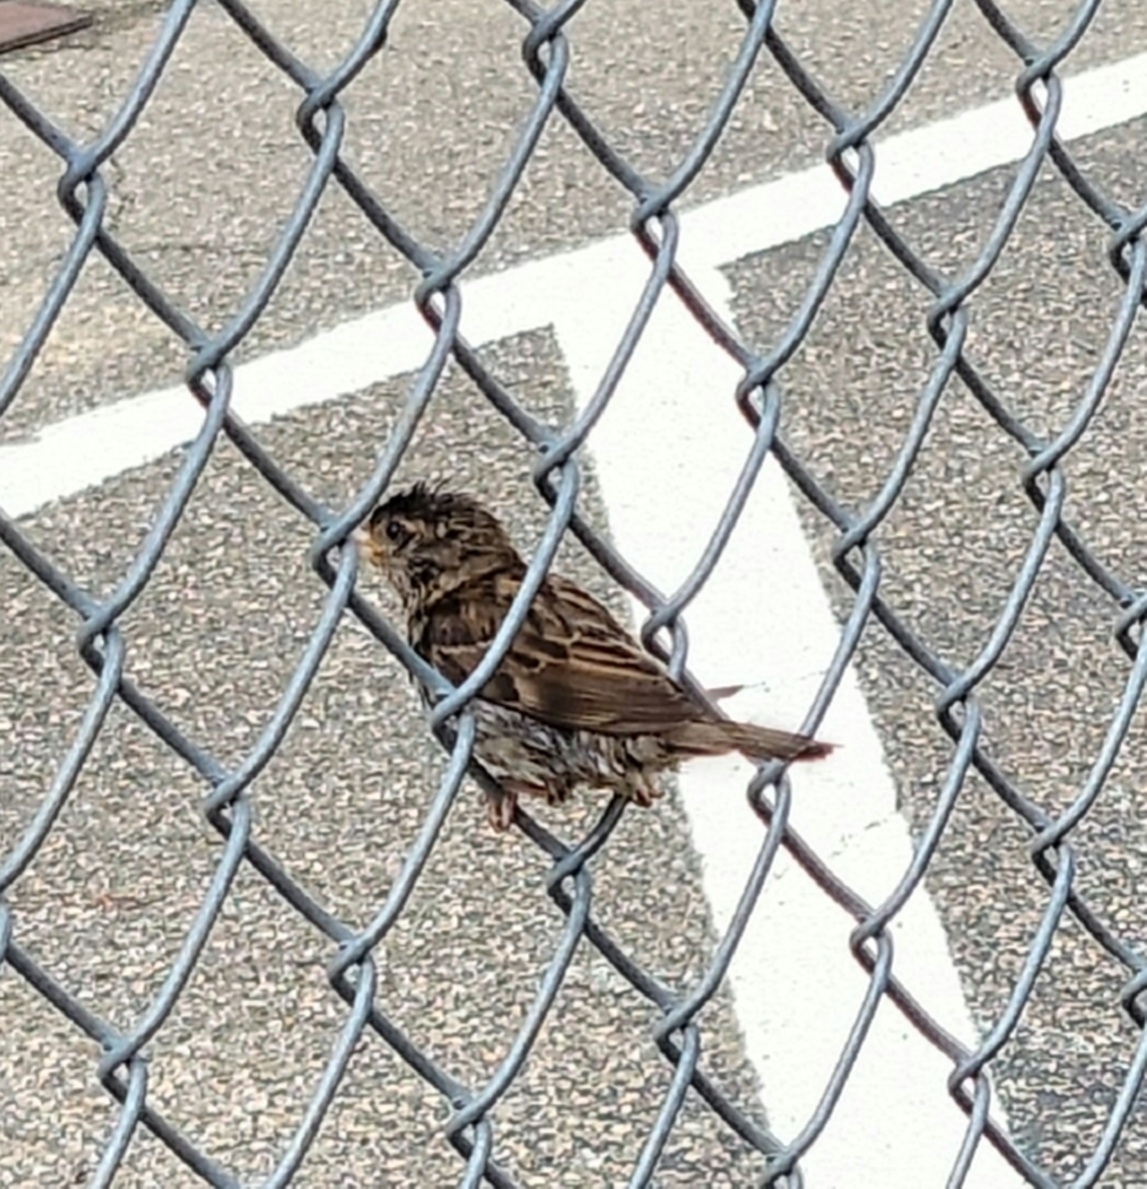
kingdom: Animalia
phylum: Chordata
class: Aves
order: Passeriformes
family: Passeridae
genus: Passer
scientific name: Passer domesticus
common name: House sparrow
